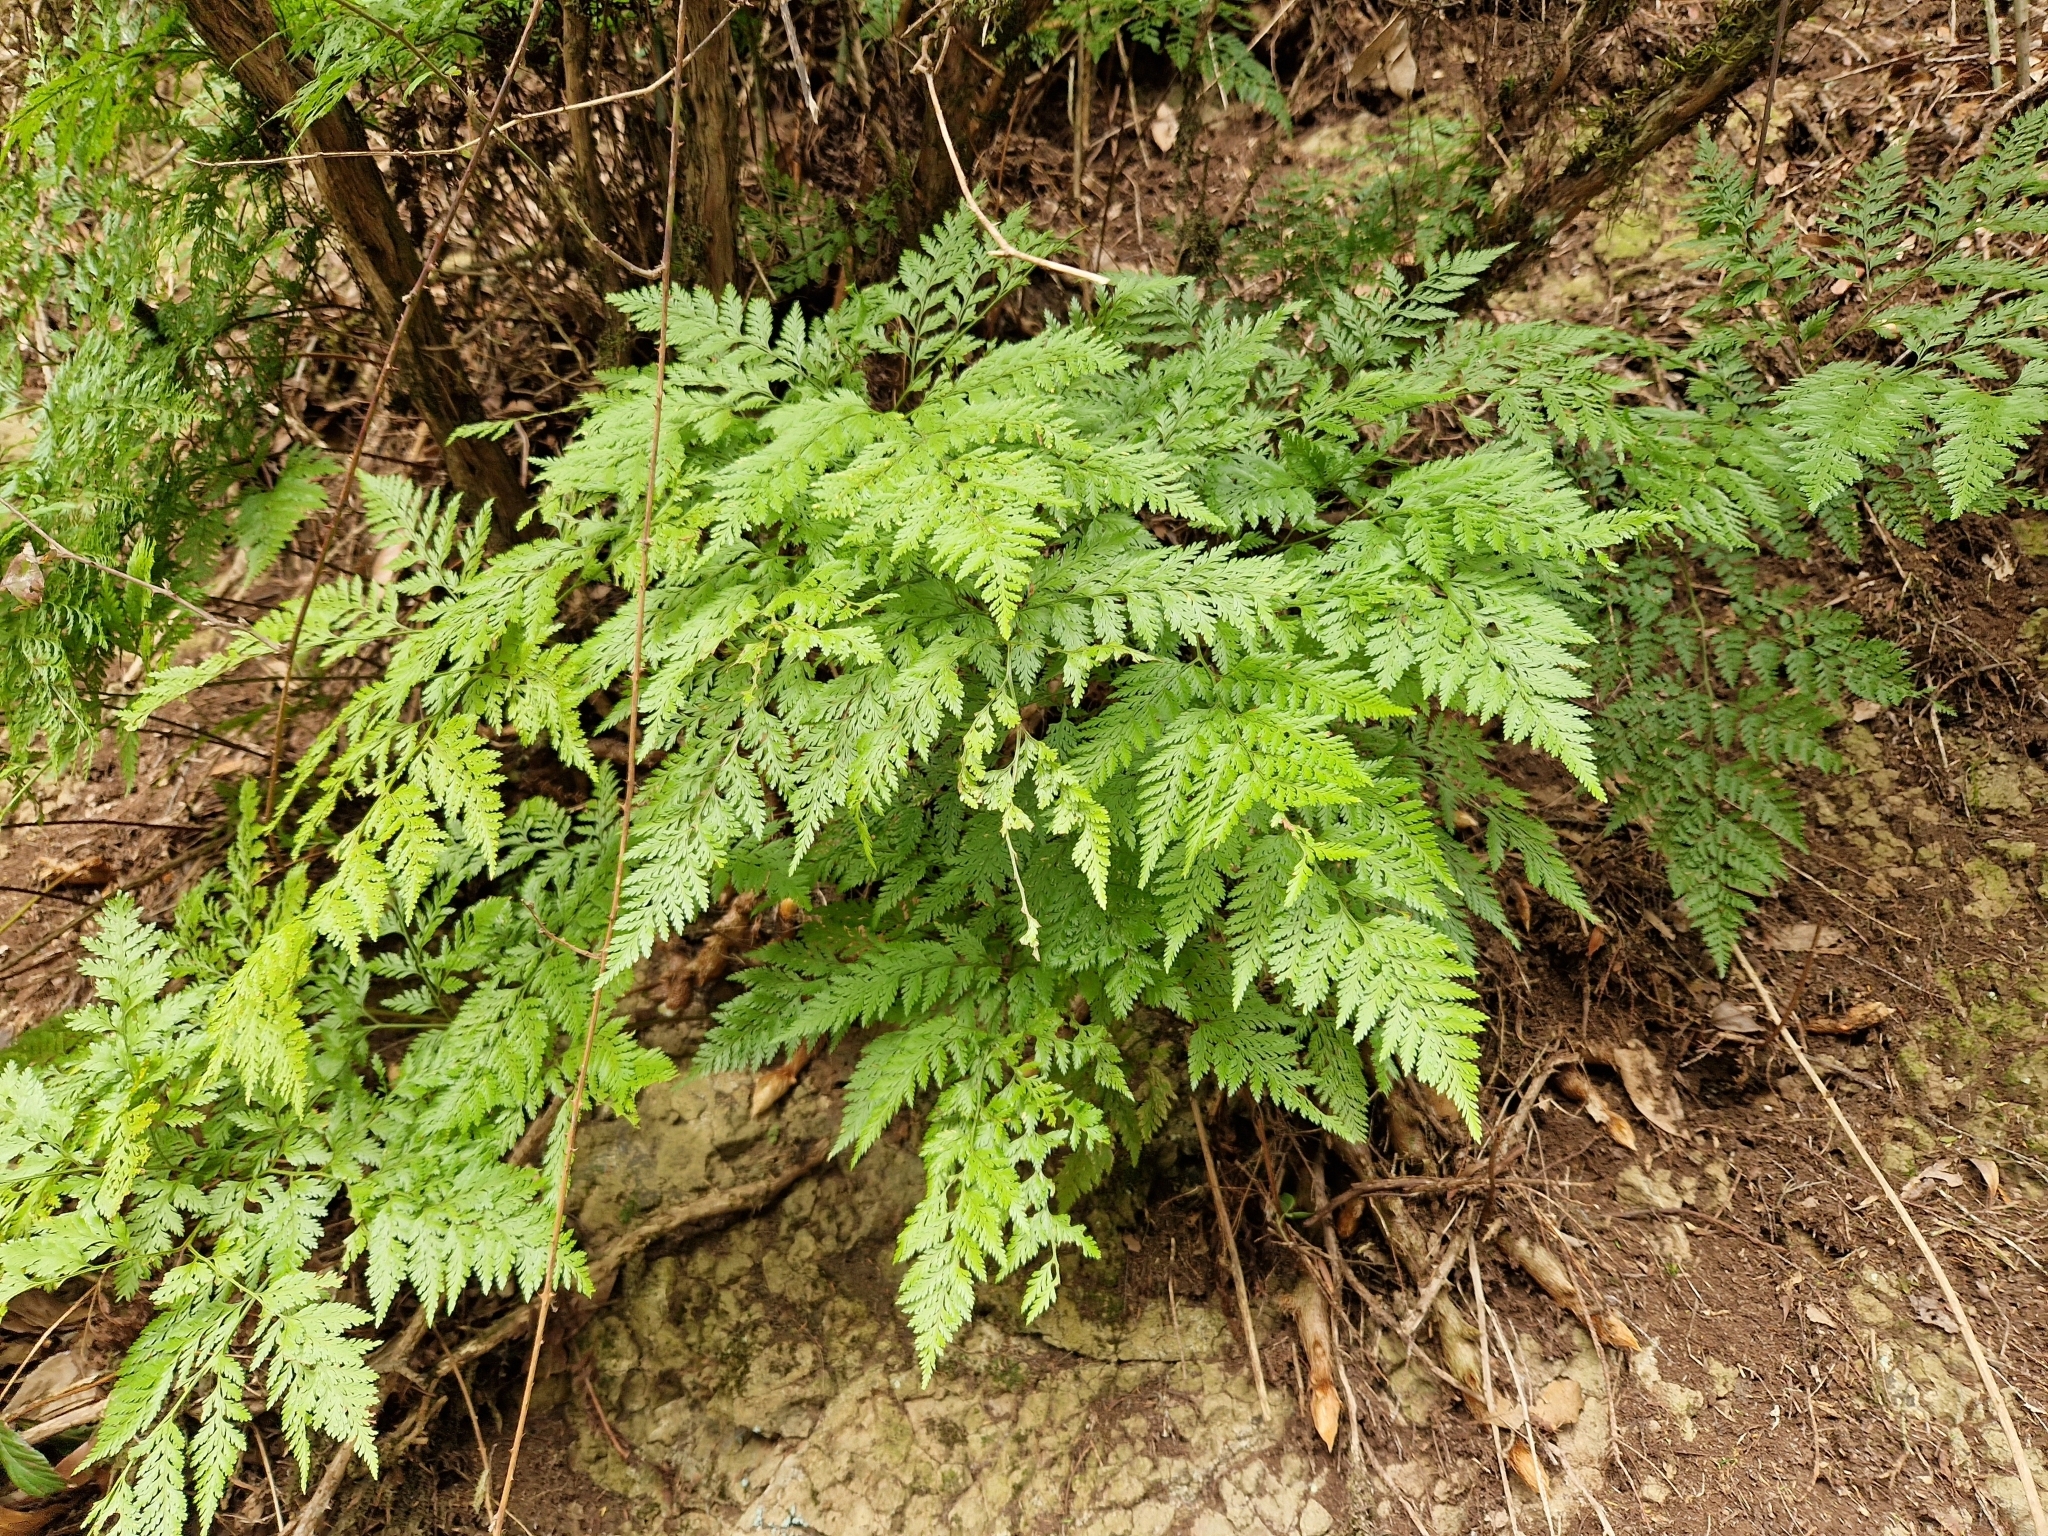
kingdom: Plantae
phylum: Tracheophyta
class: Polypodiopsida
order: Polypodiales
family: Davalliaceae
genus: Davallia
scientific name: Davallia canariensis
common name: Hare's-foot fern
